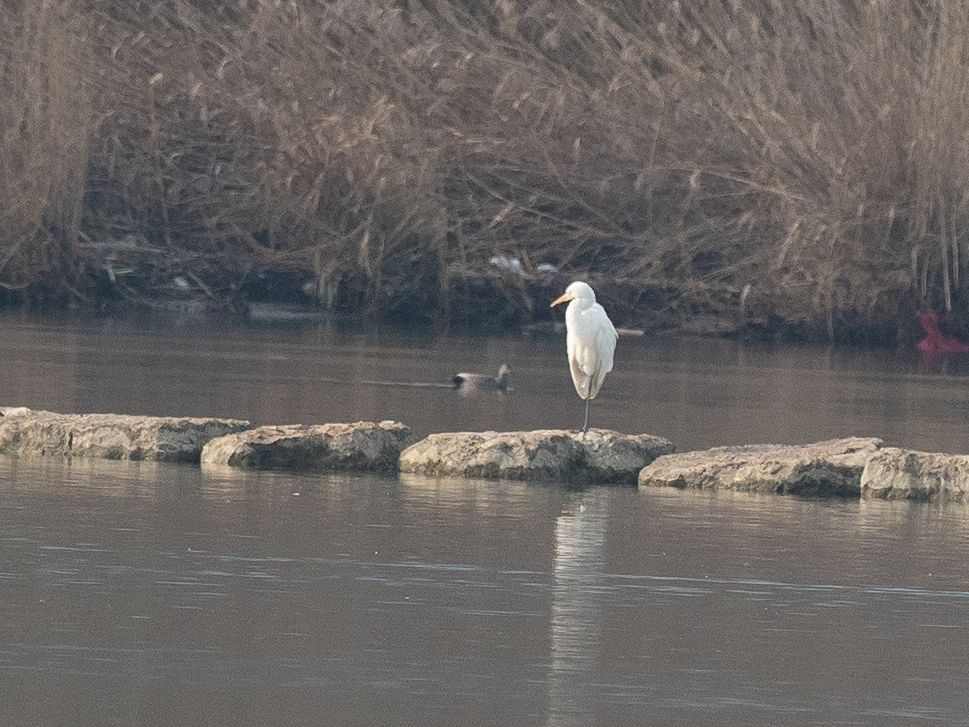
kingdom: Animalia
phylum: Chordata
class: Aves
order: Pelecaniformes
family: Ardeidae
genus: Ardea
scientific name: Ardea alba
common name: Great egret
